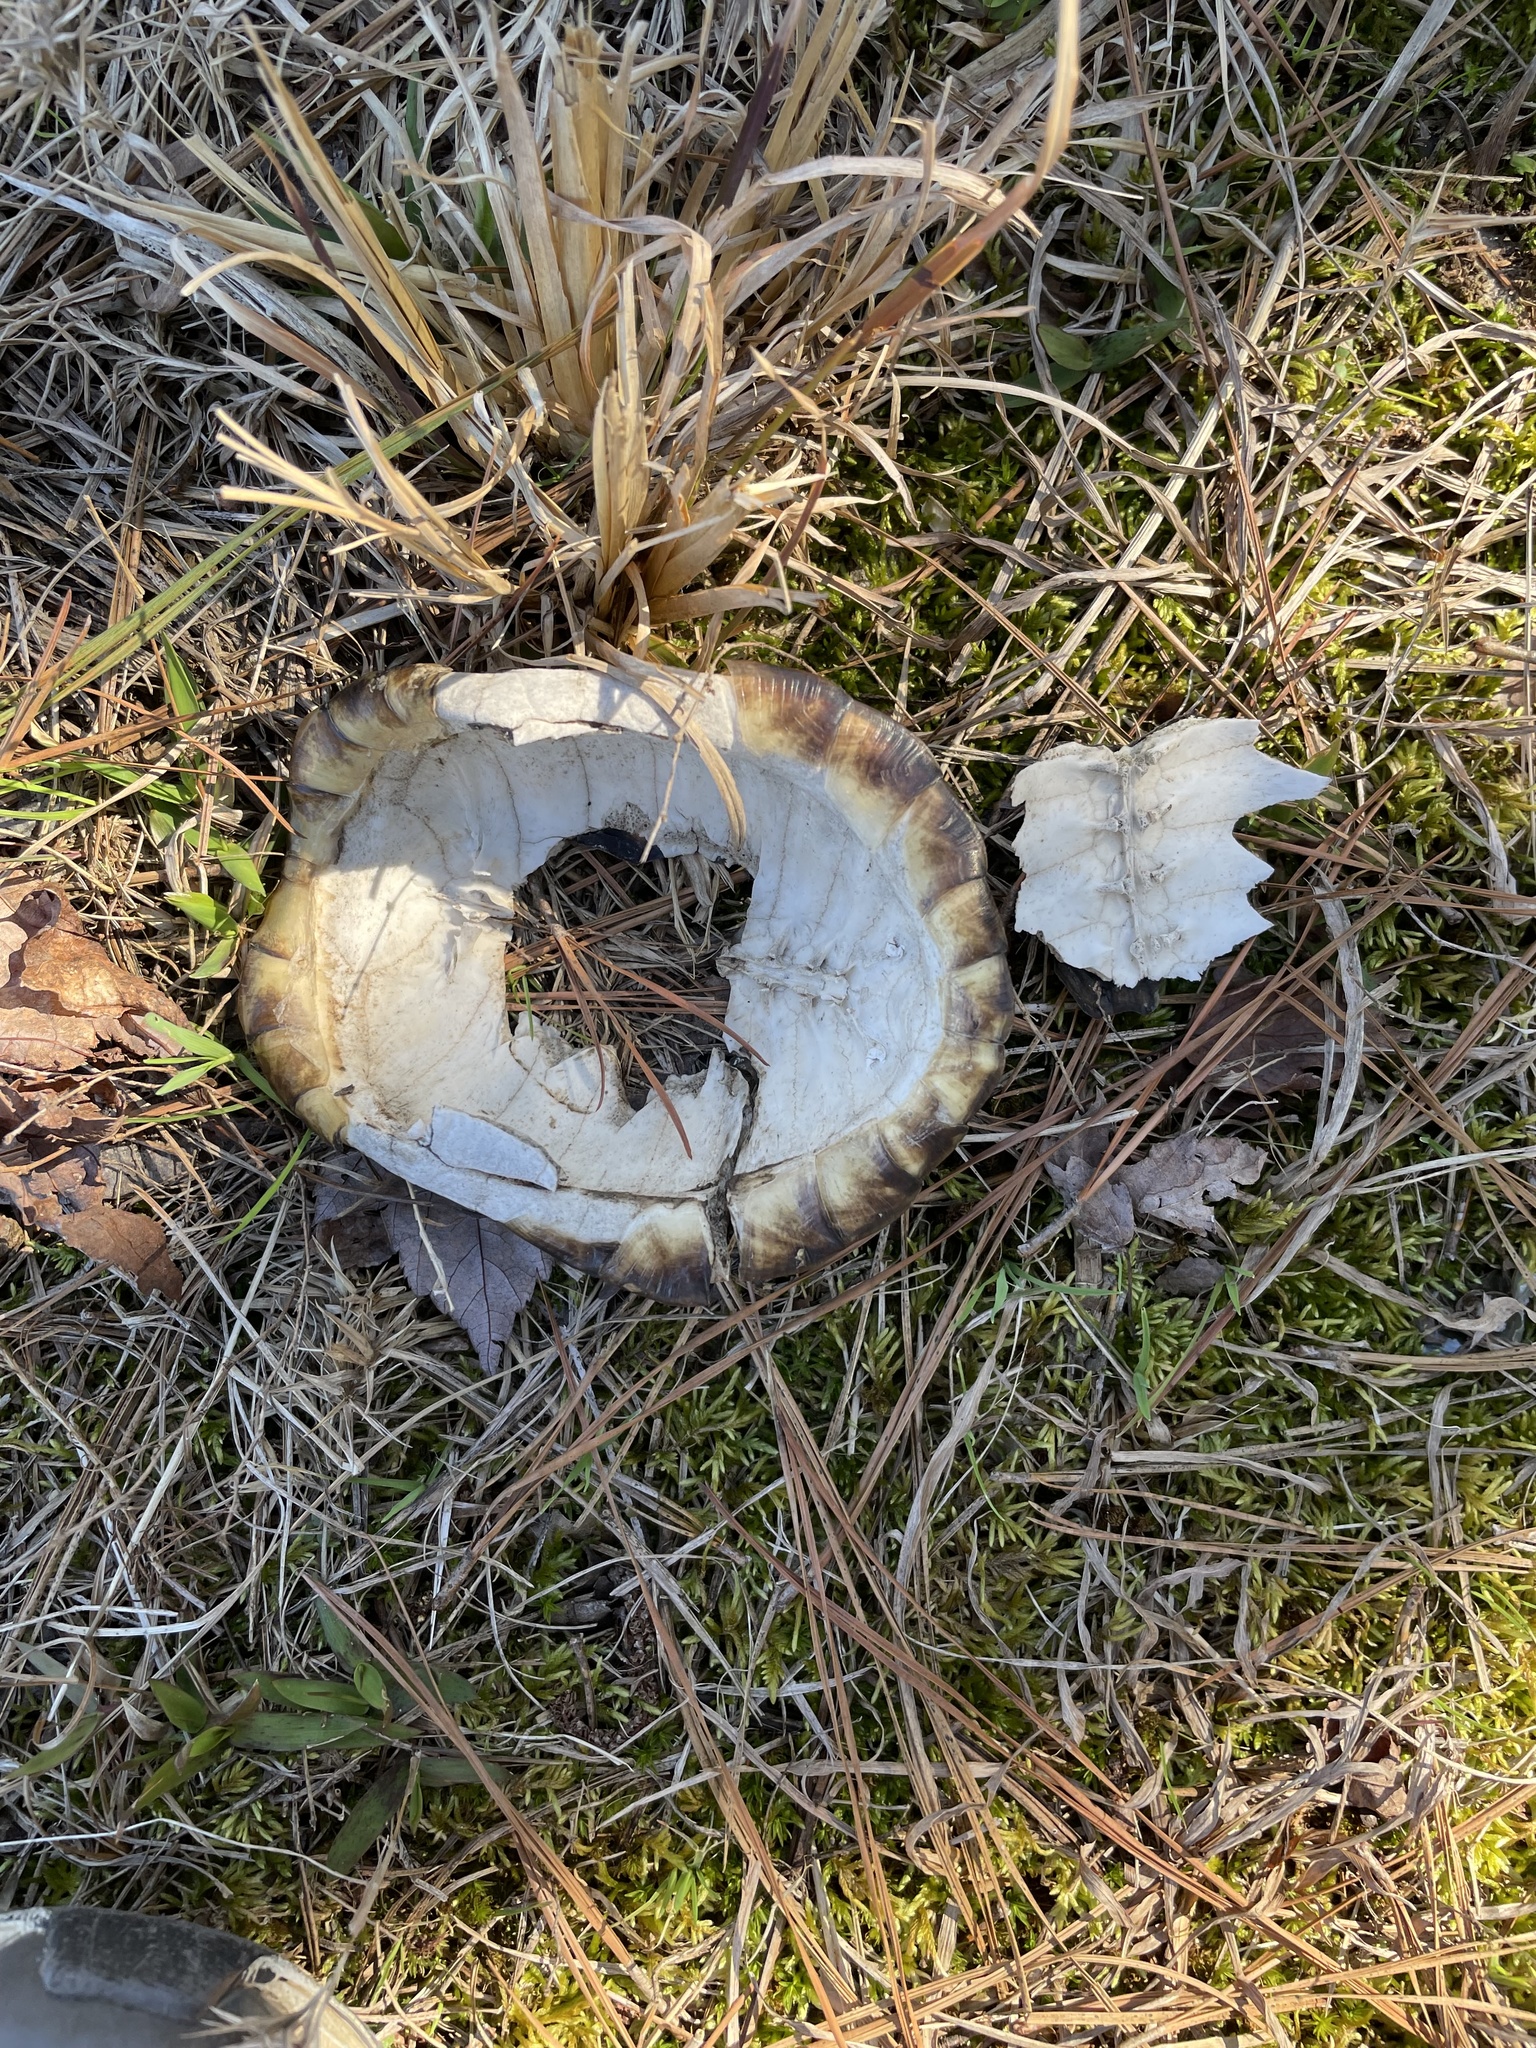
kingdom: Animalia
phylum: Chordata
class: Testudines
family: Emydidae
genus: Terrapene
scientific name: Terrapene carolina
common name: Common box turtle
